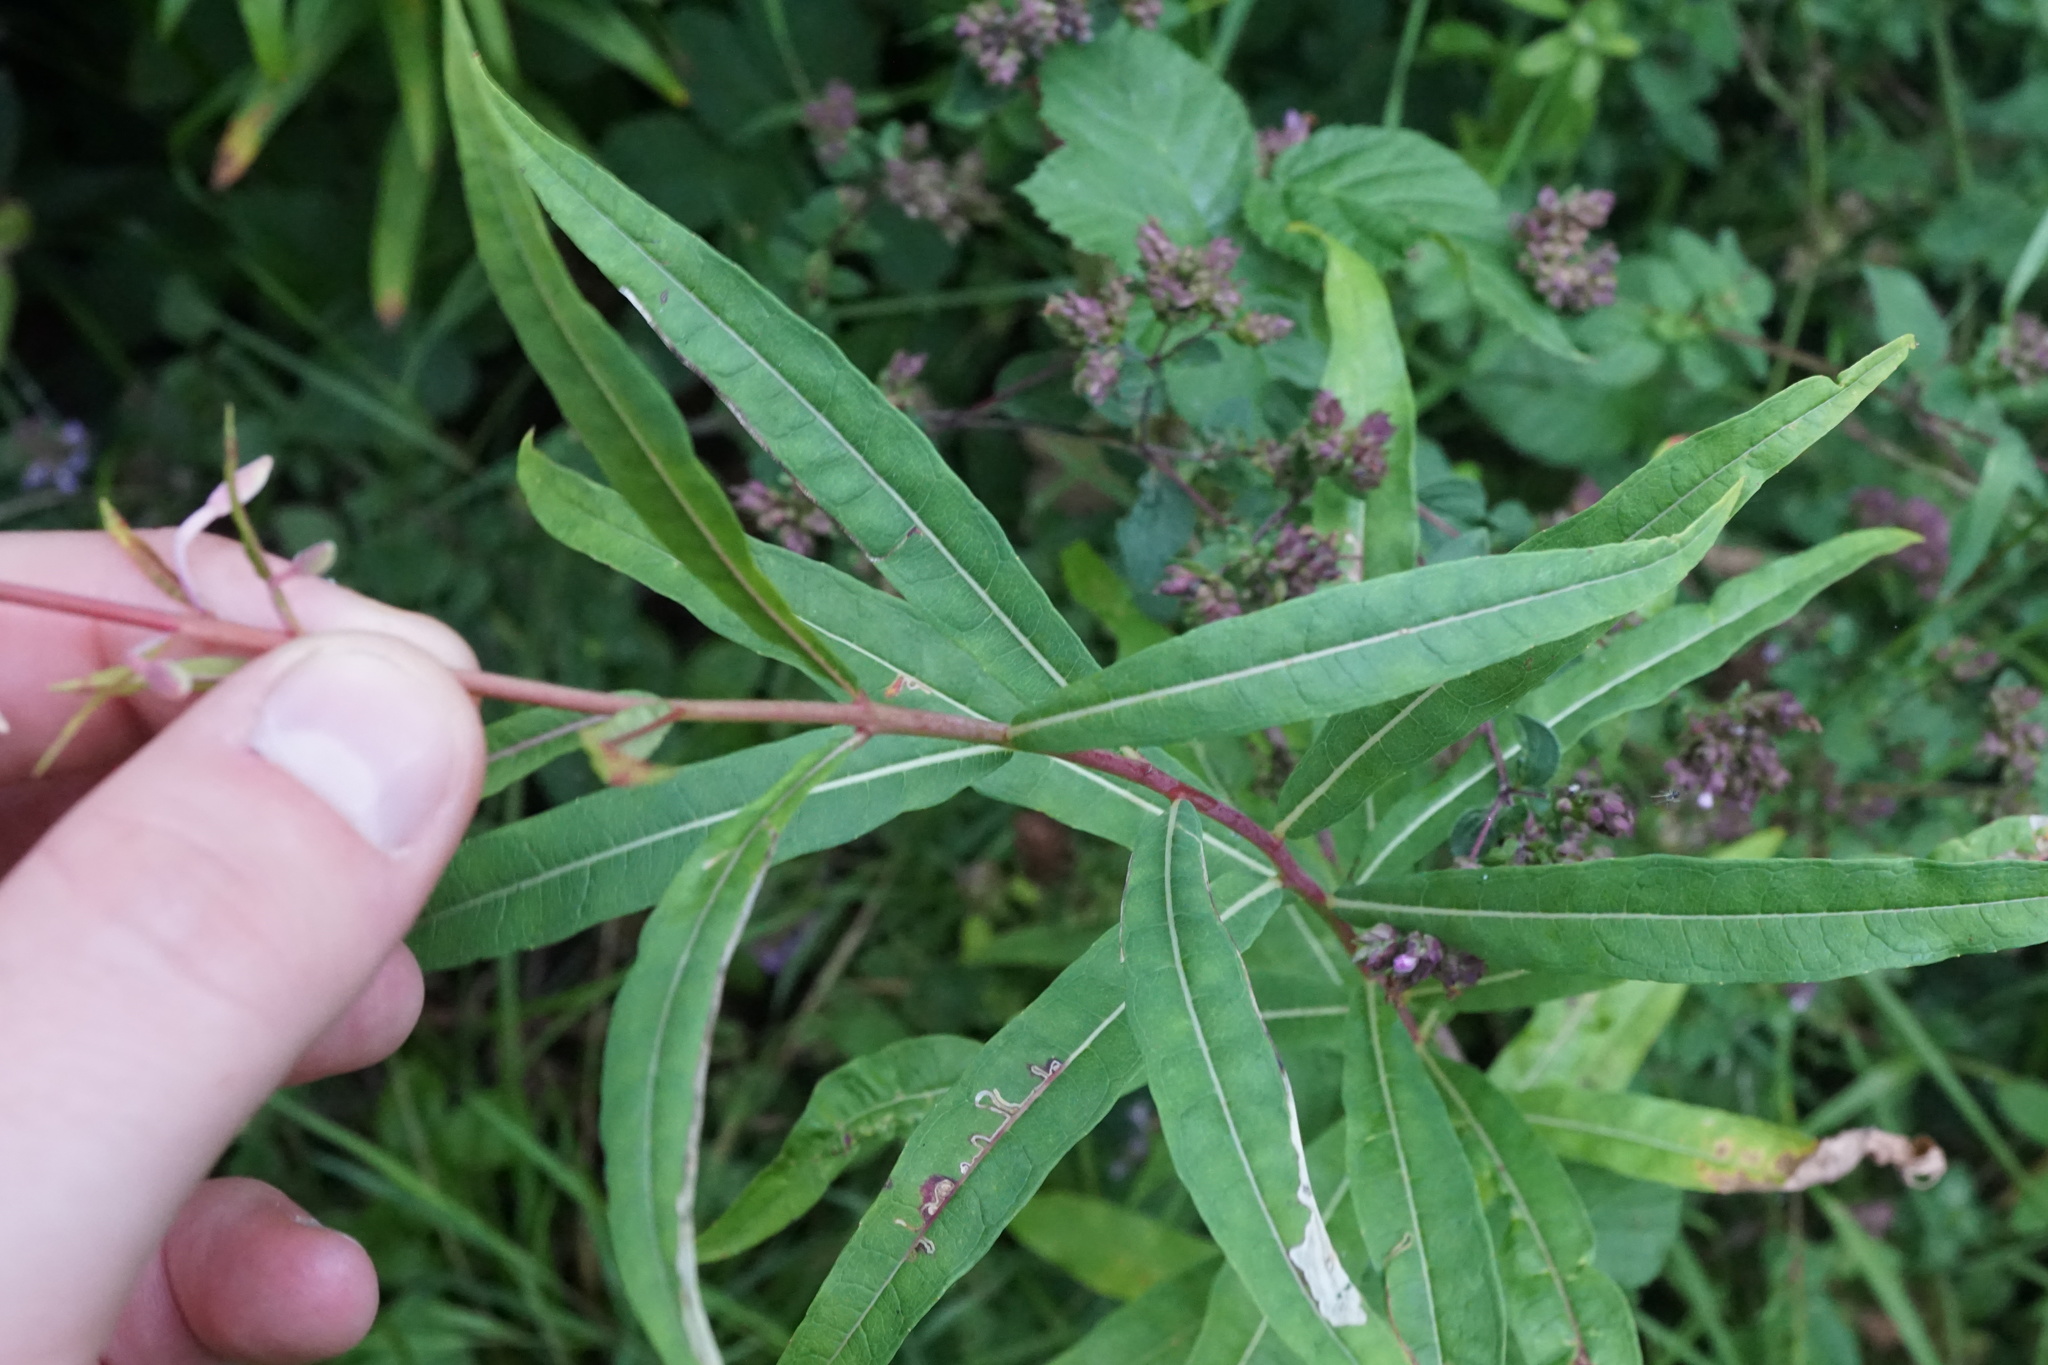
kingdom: Plantae
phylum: Tracheophyta
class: Magnoliopsida
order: Myrtales
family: Onagraceae
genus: Chamaenerion
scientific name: Chamaenerion angustifolium
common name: Fireweed
